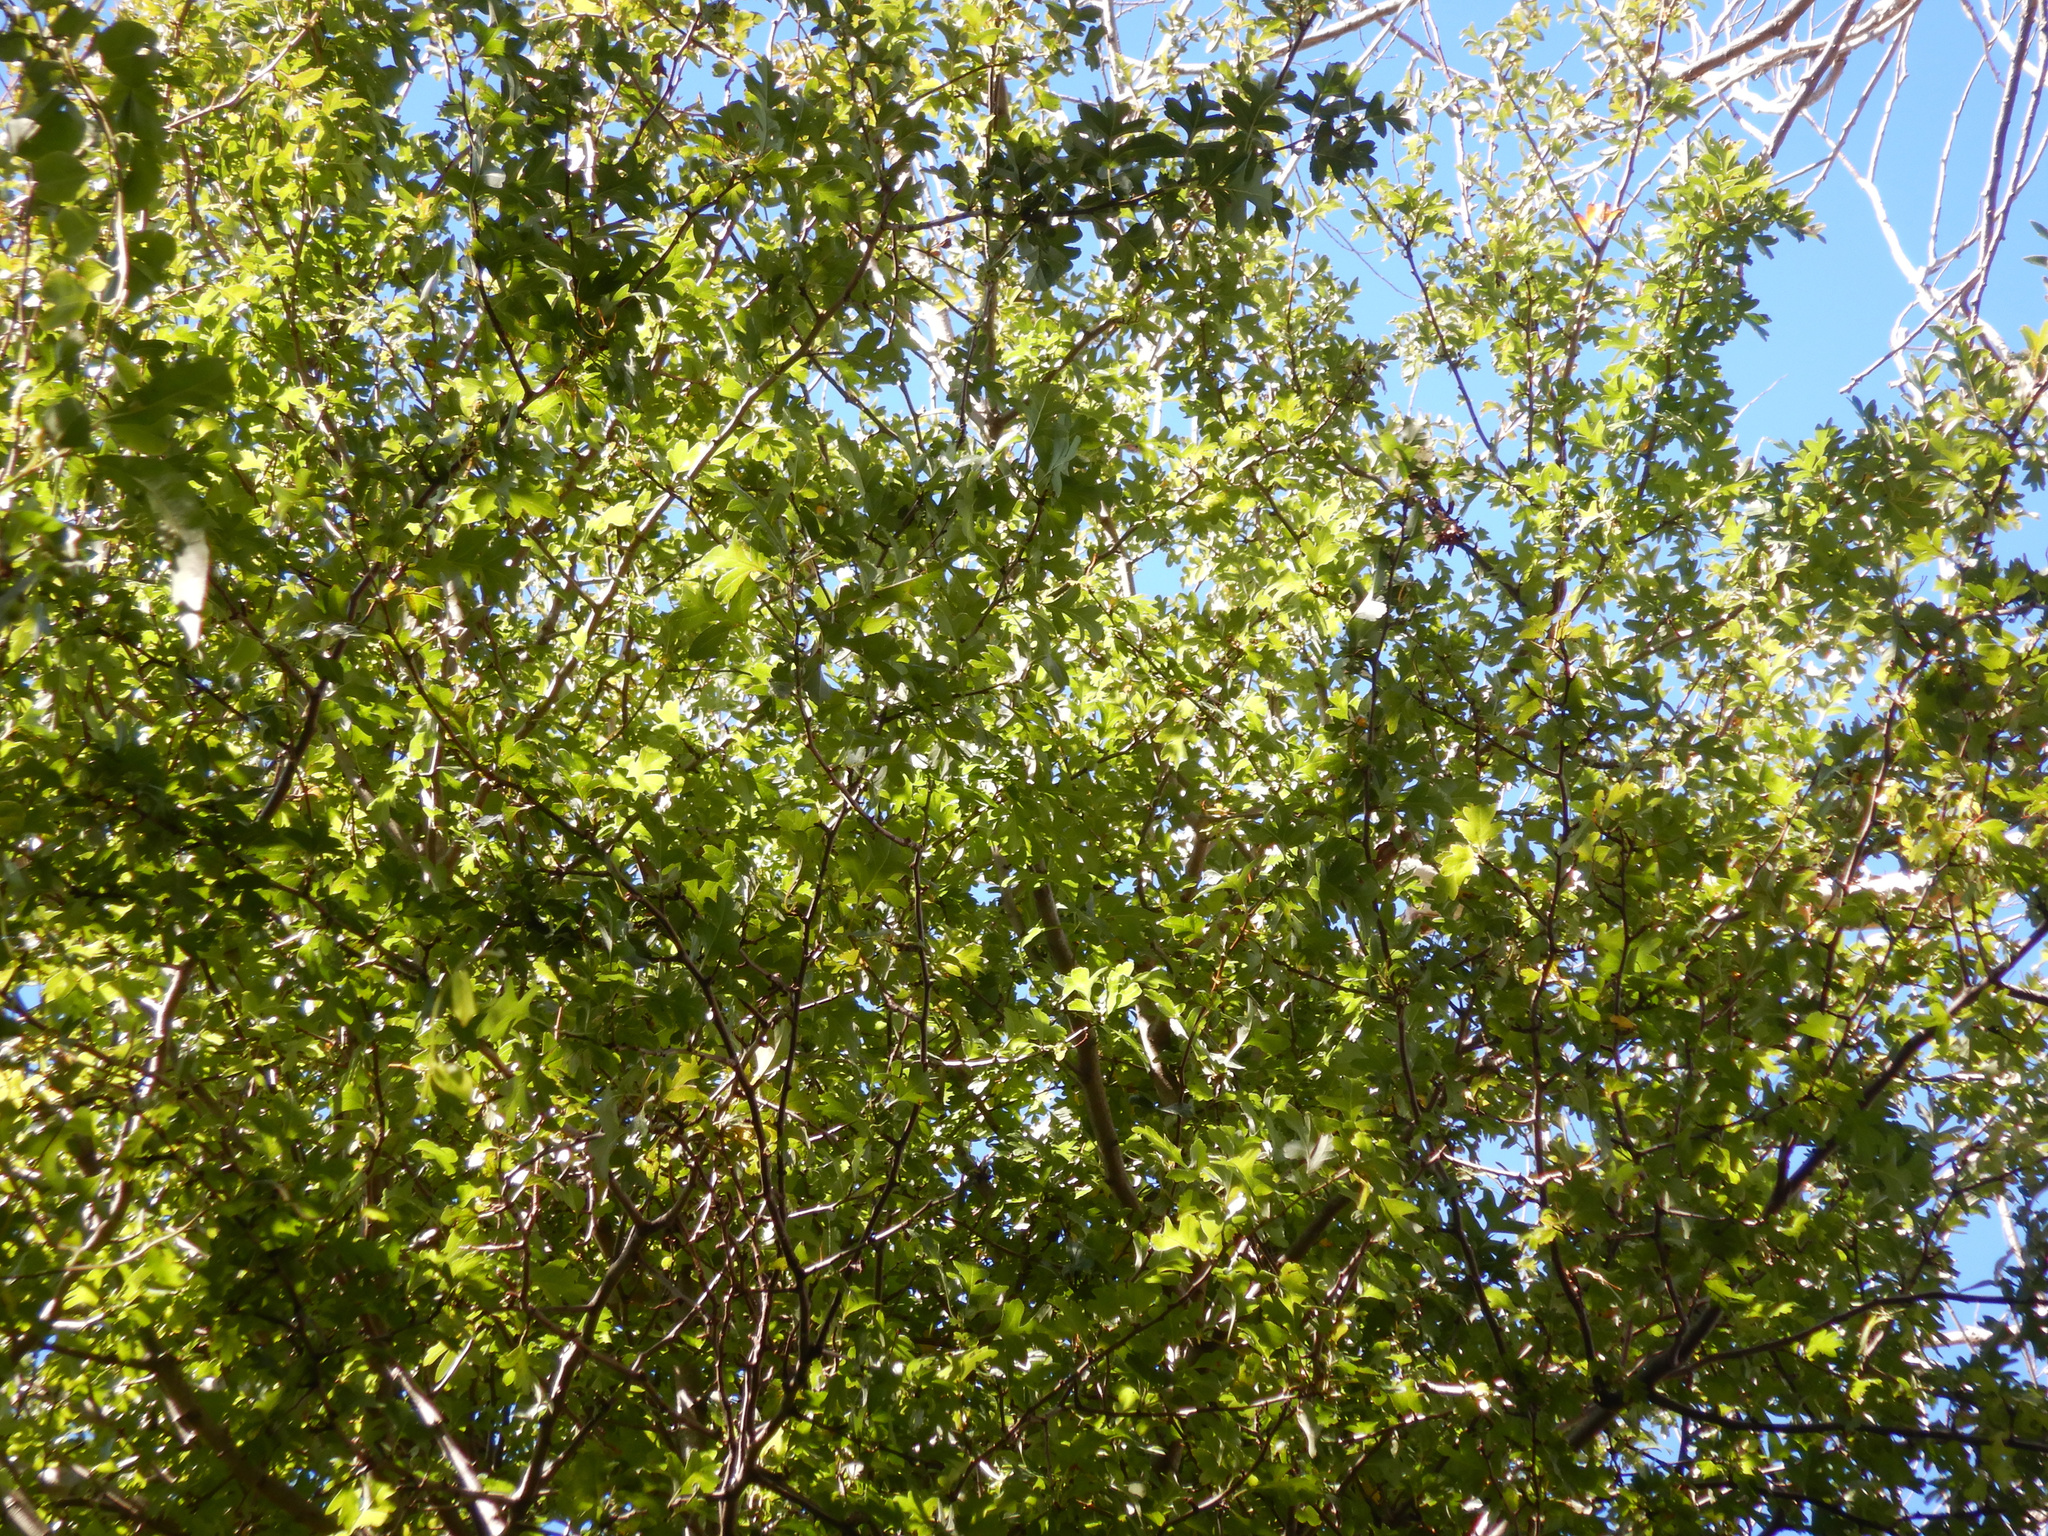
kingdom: Plantae
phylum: Tracheophyta
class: Magnoliopsida
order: Rosales
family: Rosaceae
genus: Crataegus
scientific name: Crataegus monogyna
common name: Hawthorn
